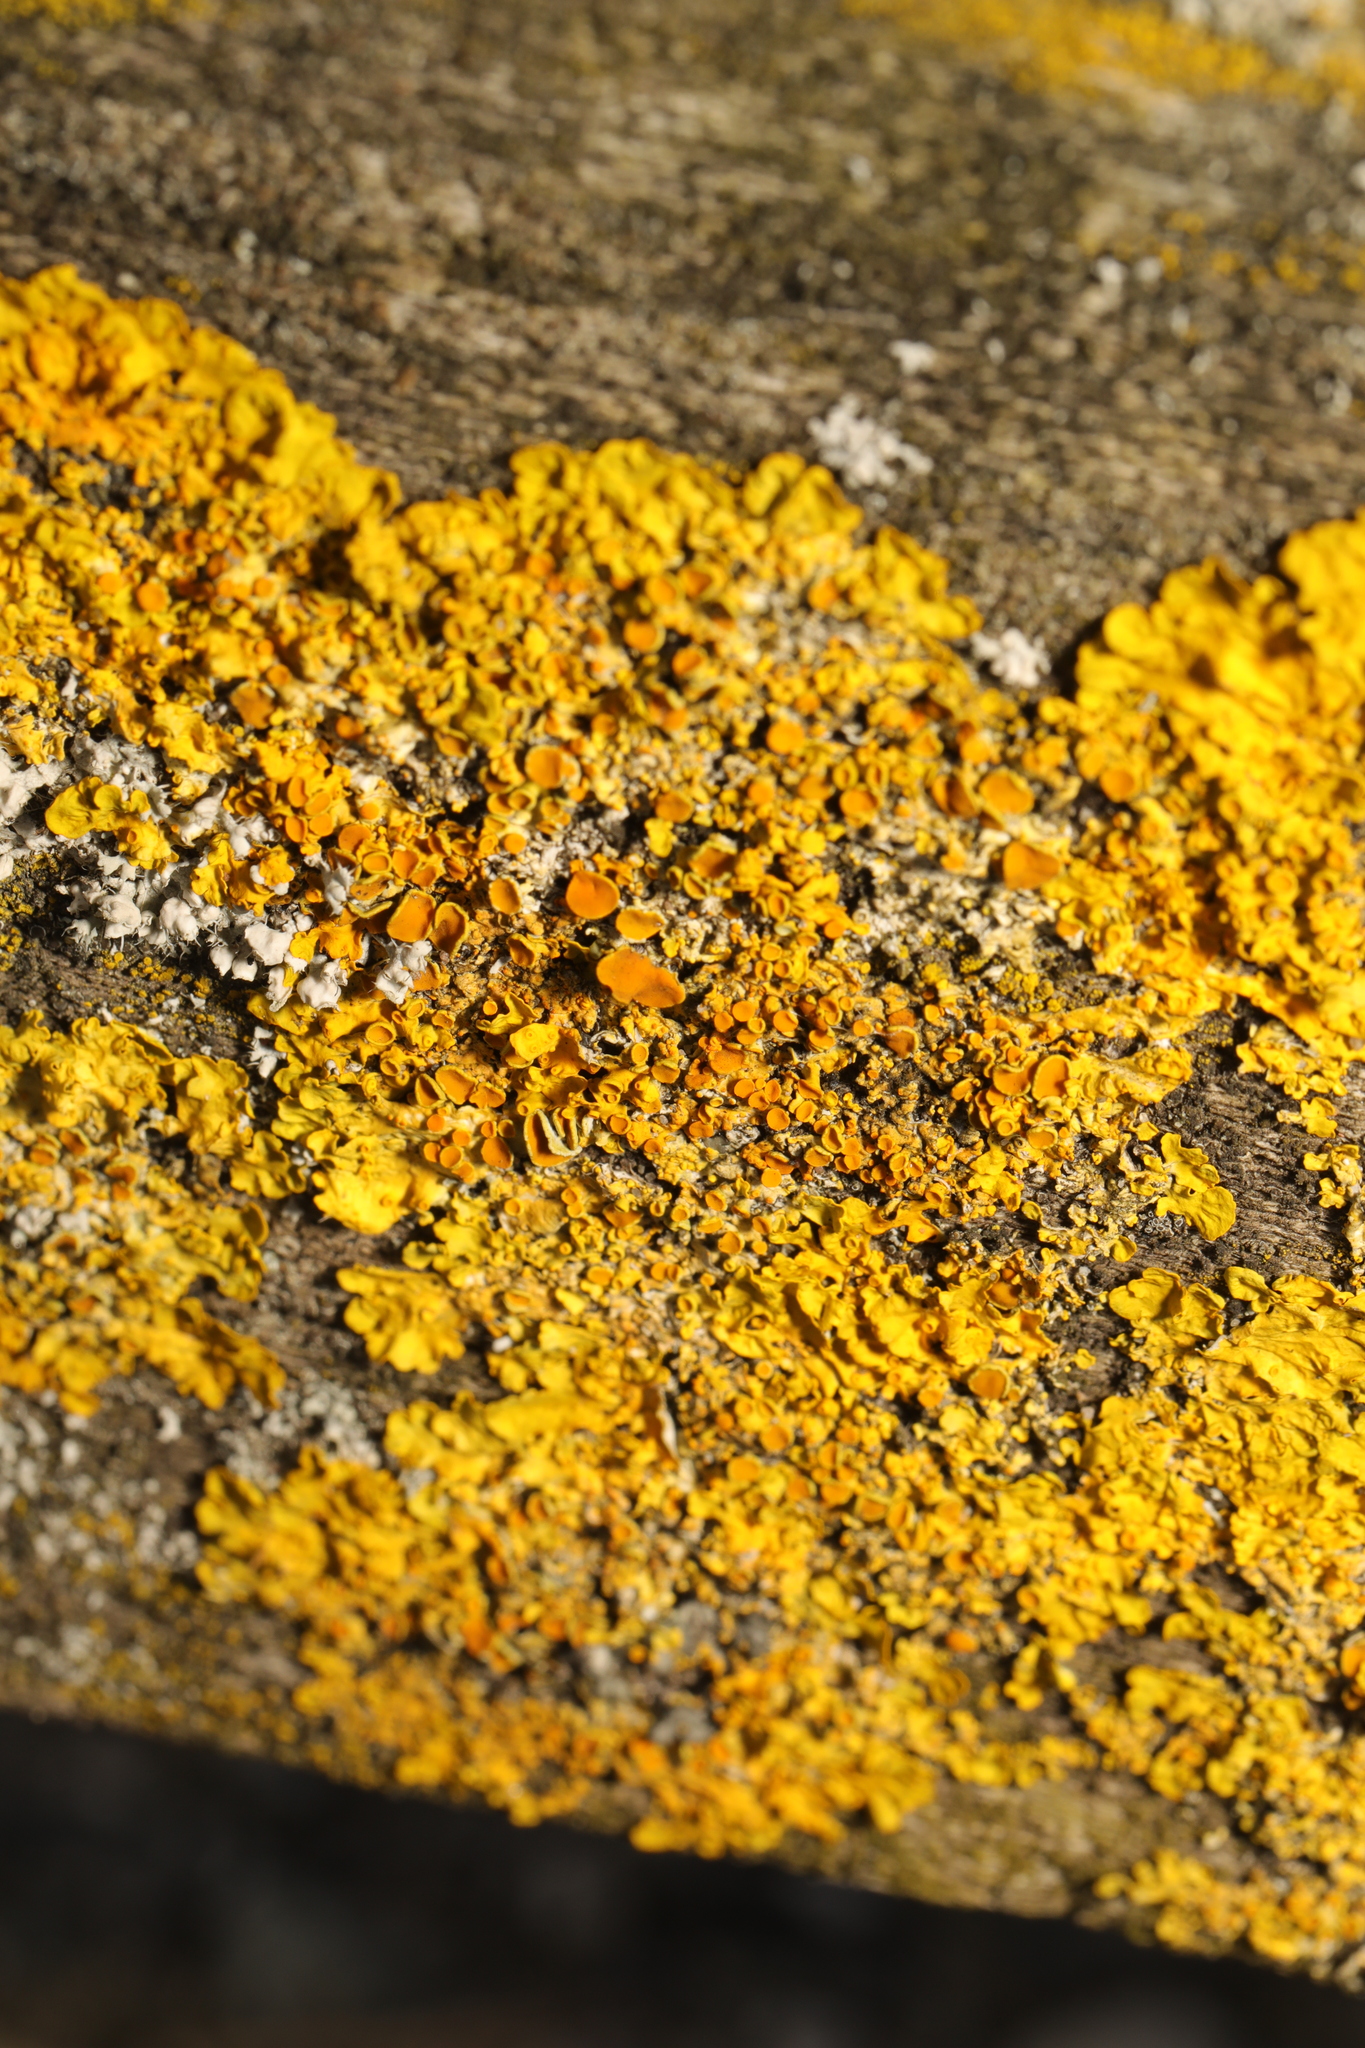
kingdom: Fungi
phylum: Ascomycota
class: Lecanoromycetes
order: Teloschistales
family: Teloschistaceae
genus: Xanthoria
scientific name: Xanthoria parietina
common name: Common orange lichen
